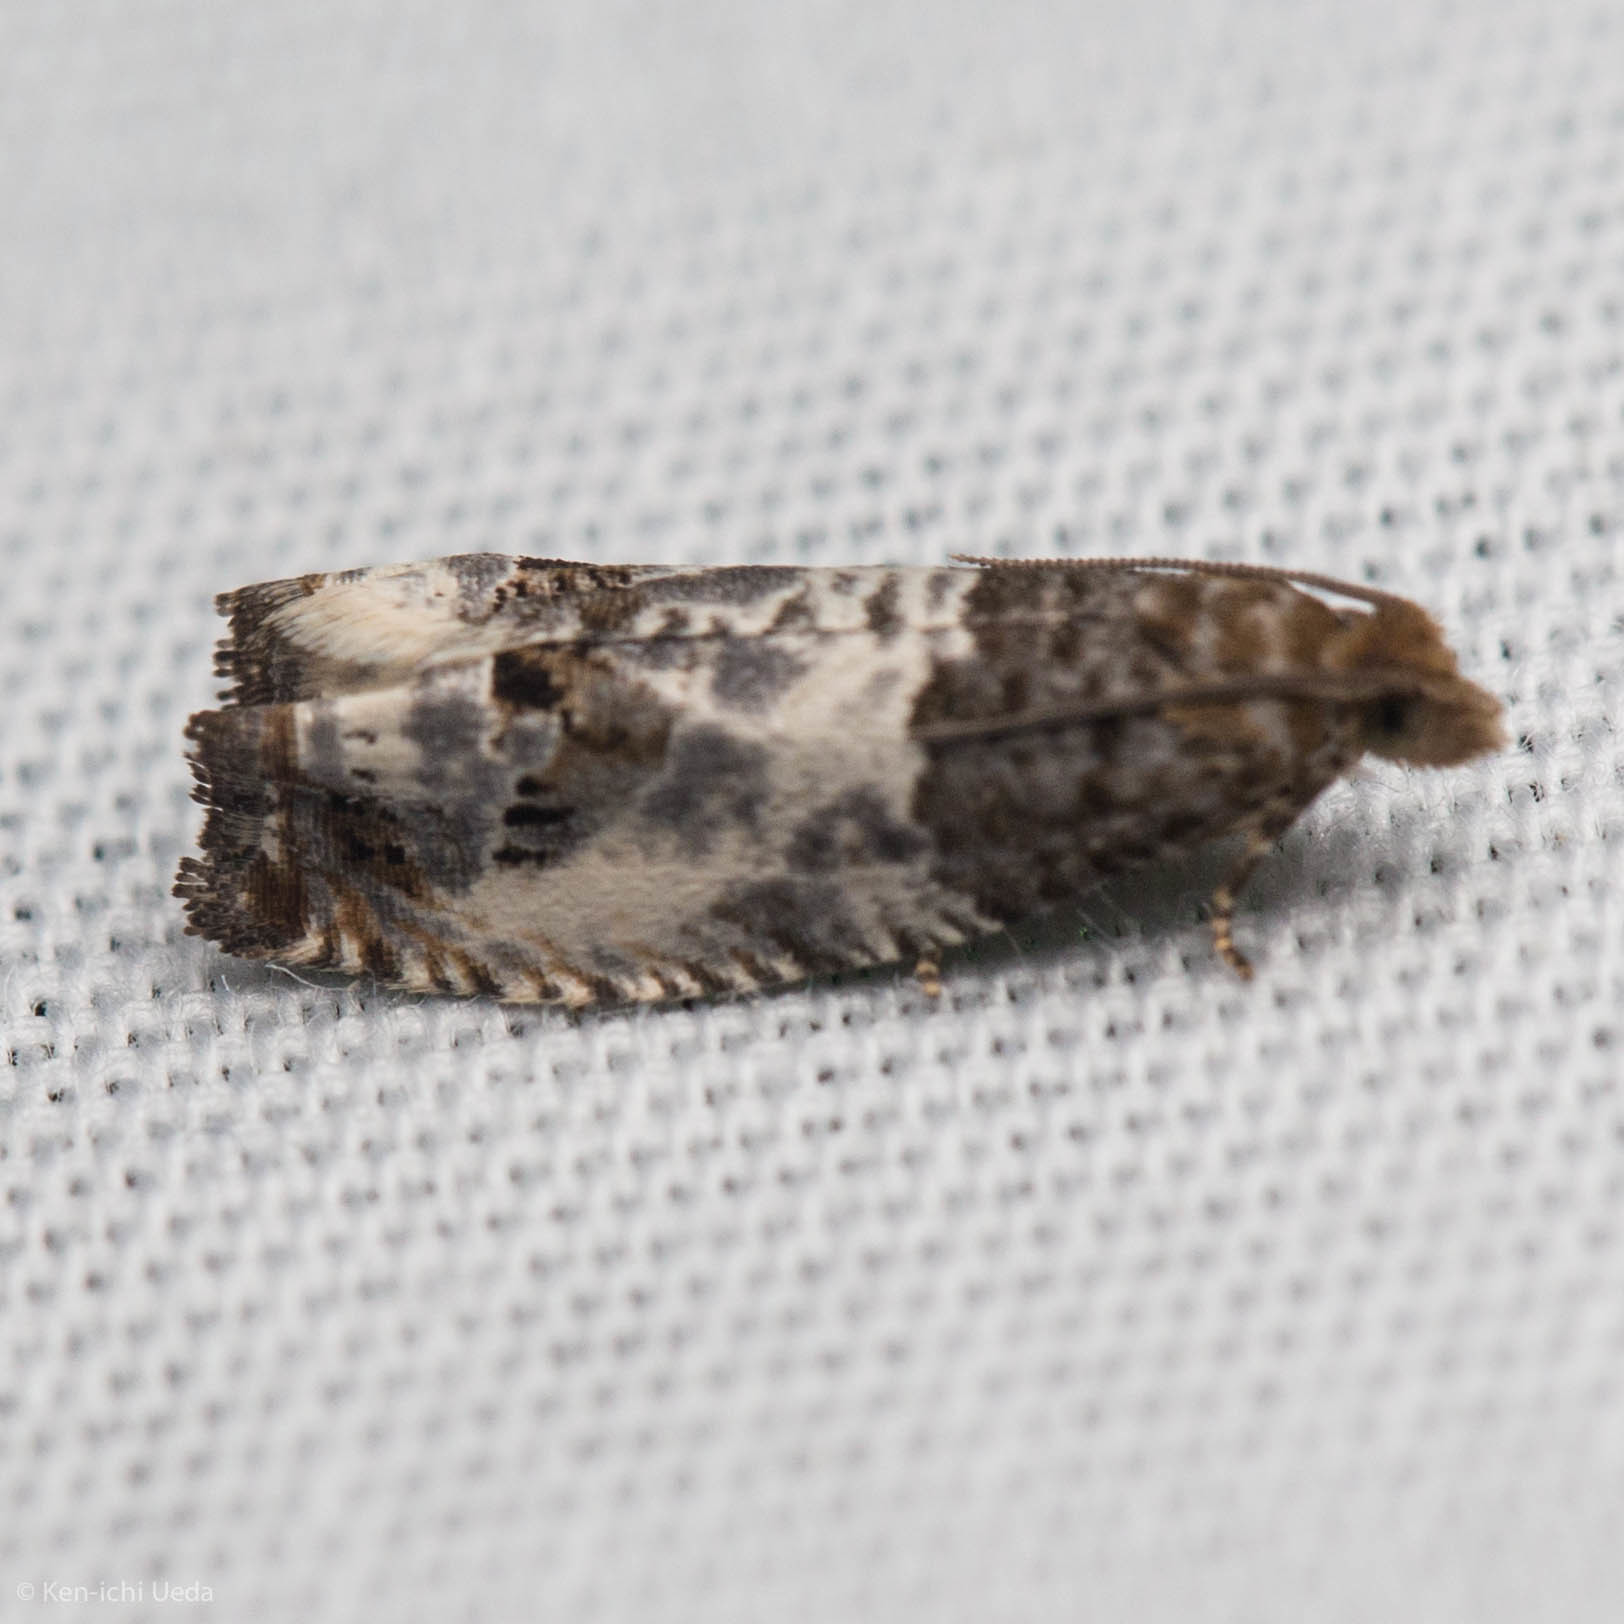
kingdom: Animalia
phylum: Arthropoda
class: Insecta
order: Lepidoptera
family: Tortricidae
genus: Notocelia
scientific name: Notocelia rosaecolana
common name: Common rose bell
